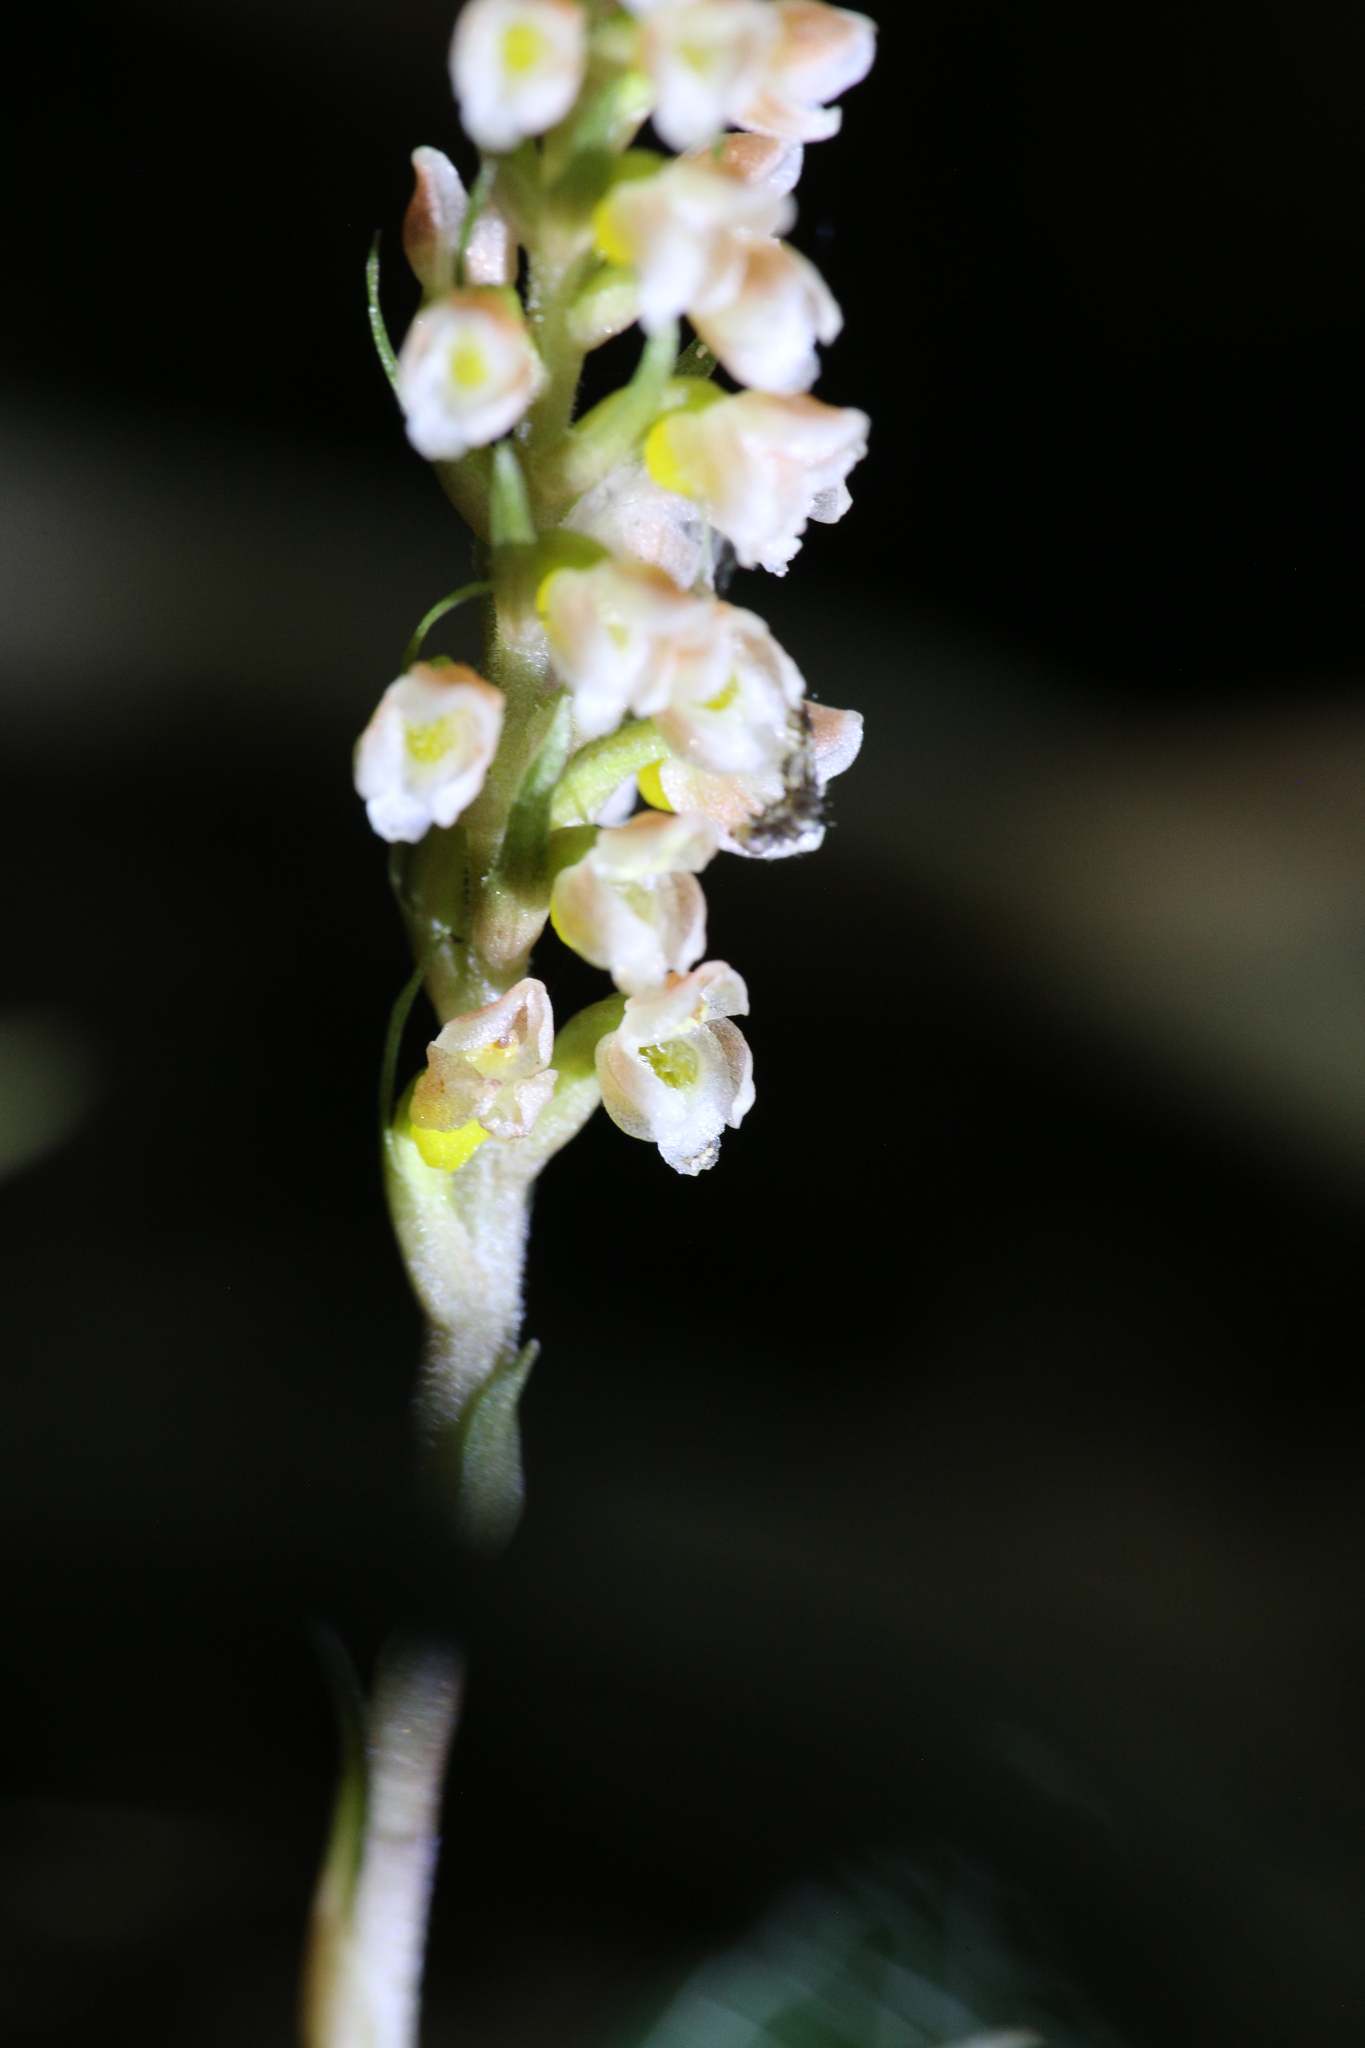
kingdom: Plantae
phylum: Tracheophyta
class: Liliopsida
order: Asparagales
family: Orchidaceae
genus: Goodyera
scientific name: Goodyera hachijoensis
